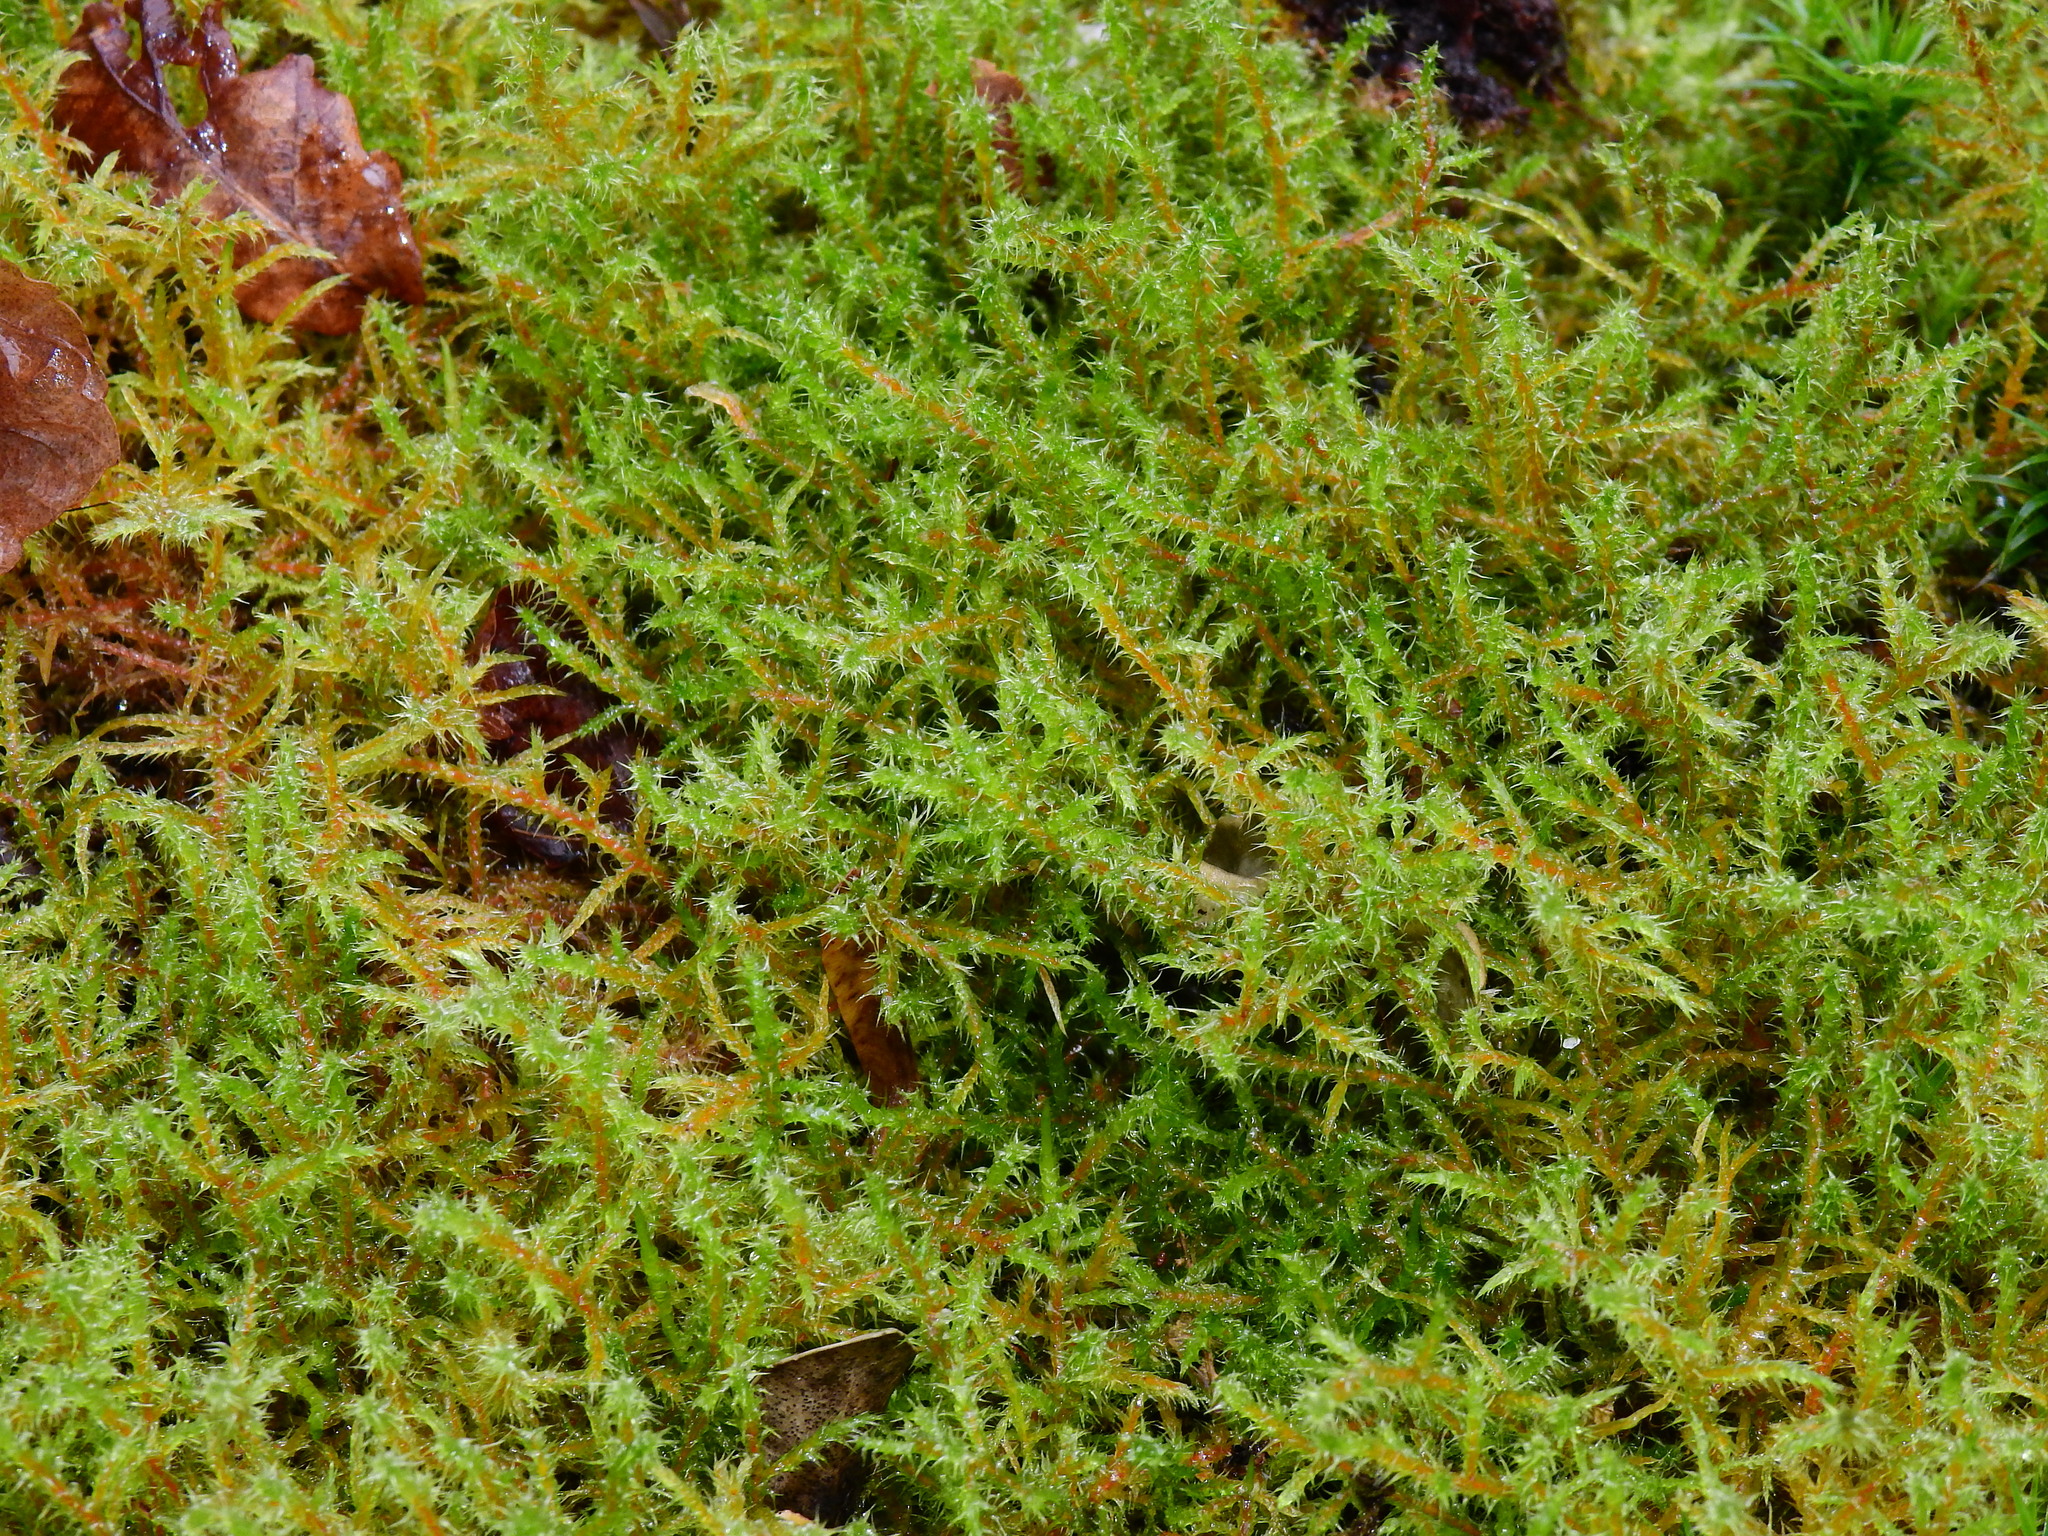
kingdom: Plantae
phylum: Bryophyta
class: Bryopsida
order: Hypnales
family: Hylocomiaceae
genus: Rhytidiadelphus
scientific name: Rhytidiadelphus squarrosus
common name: Springy turf-moss
